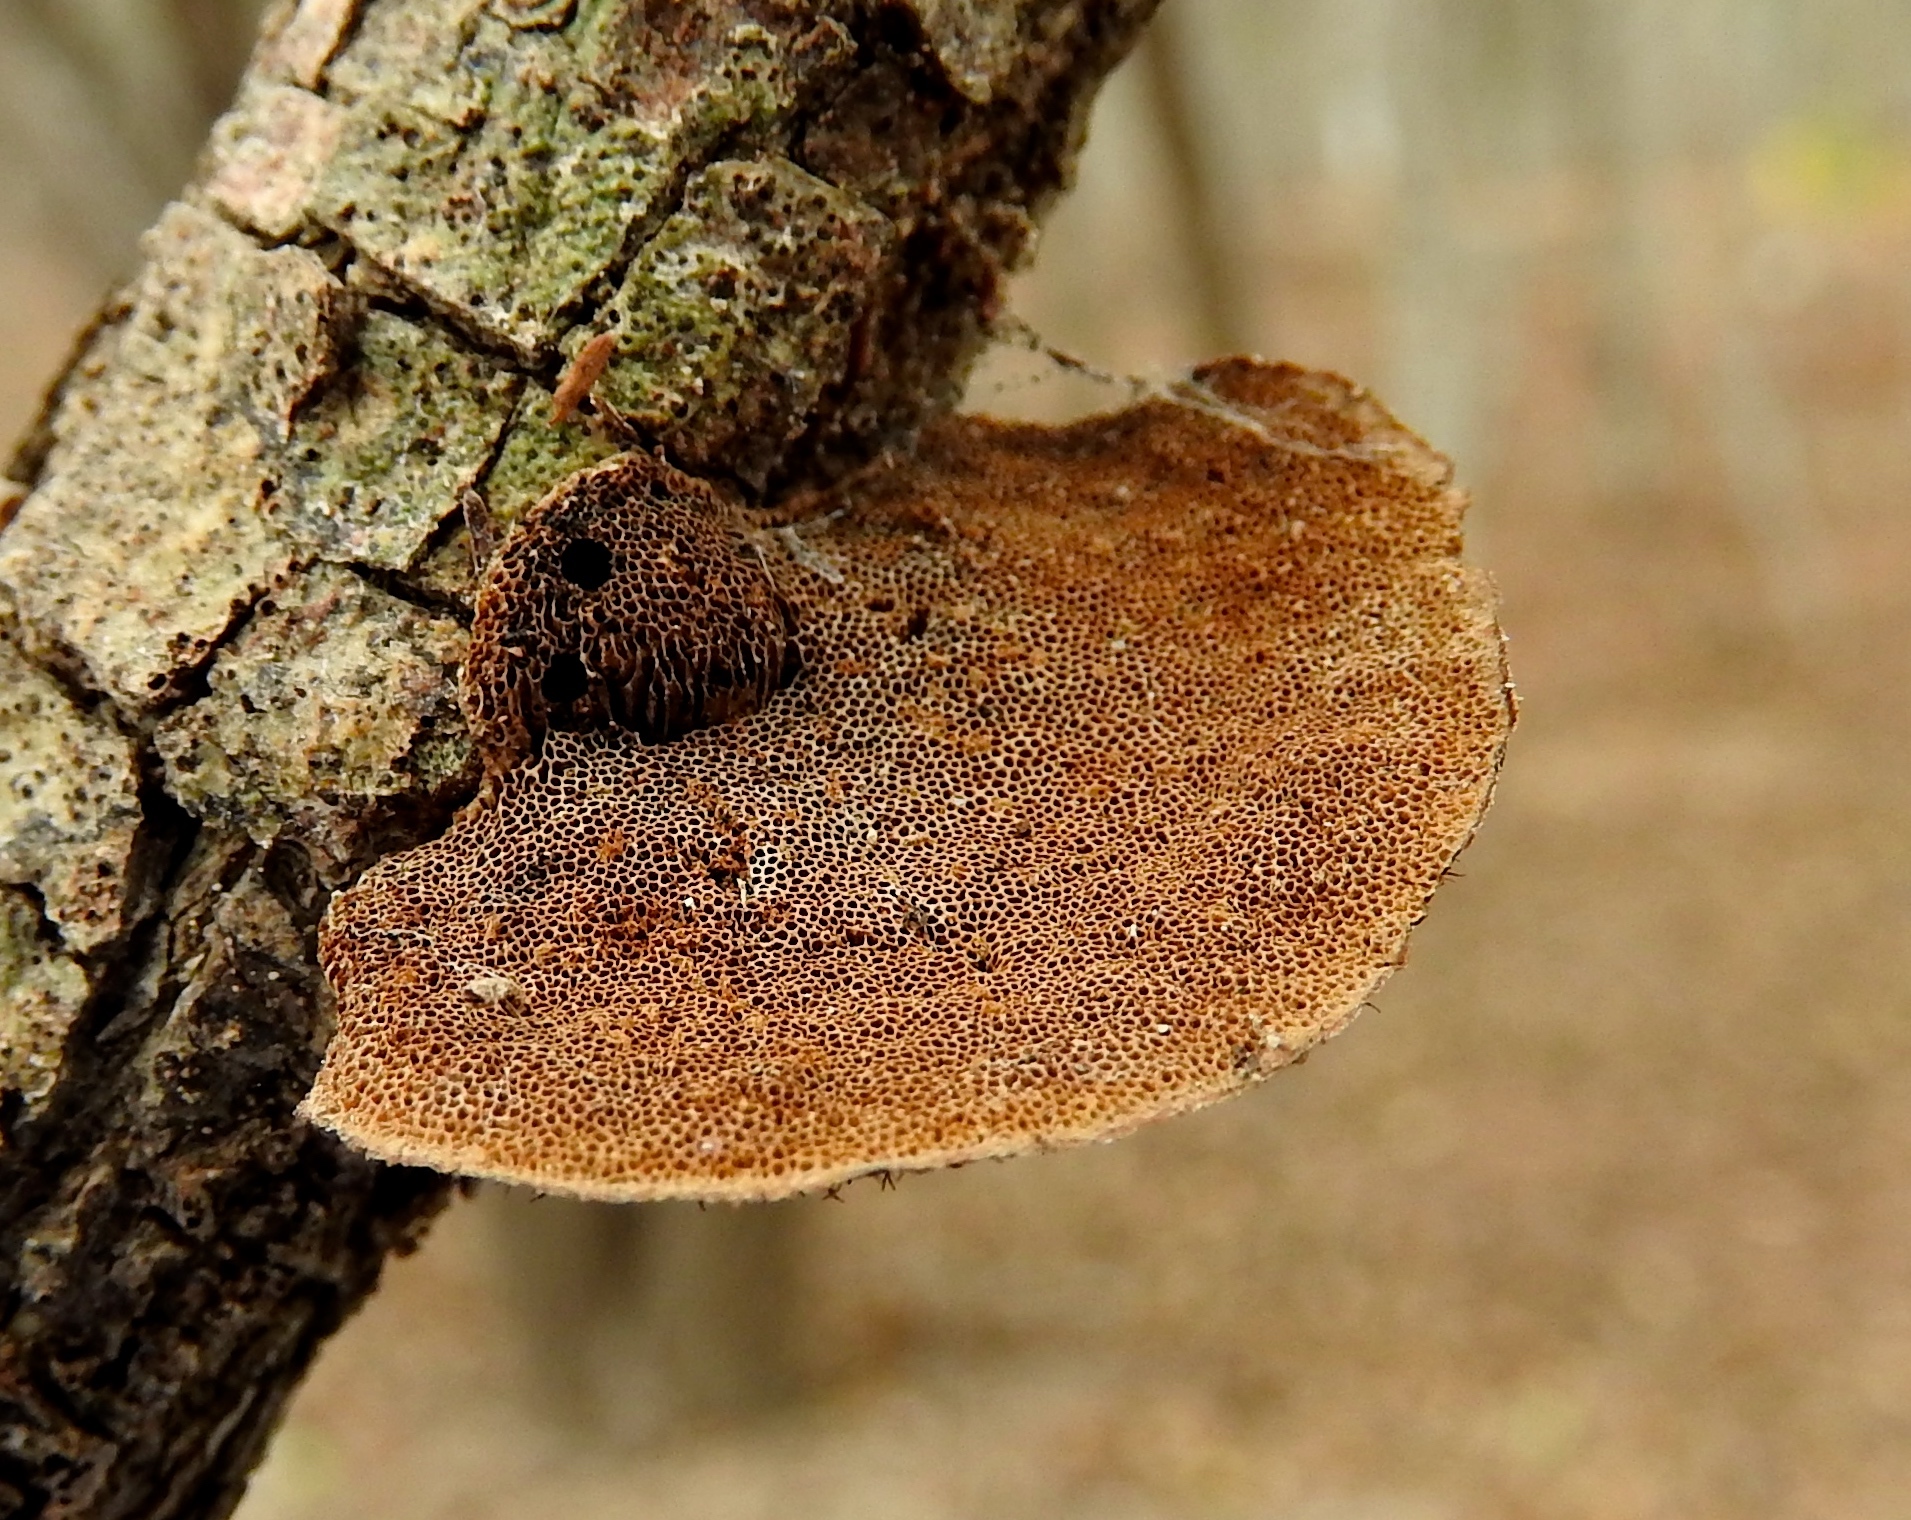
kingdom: Fungi
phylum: Basidiomycota
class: Agaricomycetes
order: Polyporales
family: Polyporaceae
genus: Hexagonia
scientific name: Hexagonia
